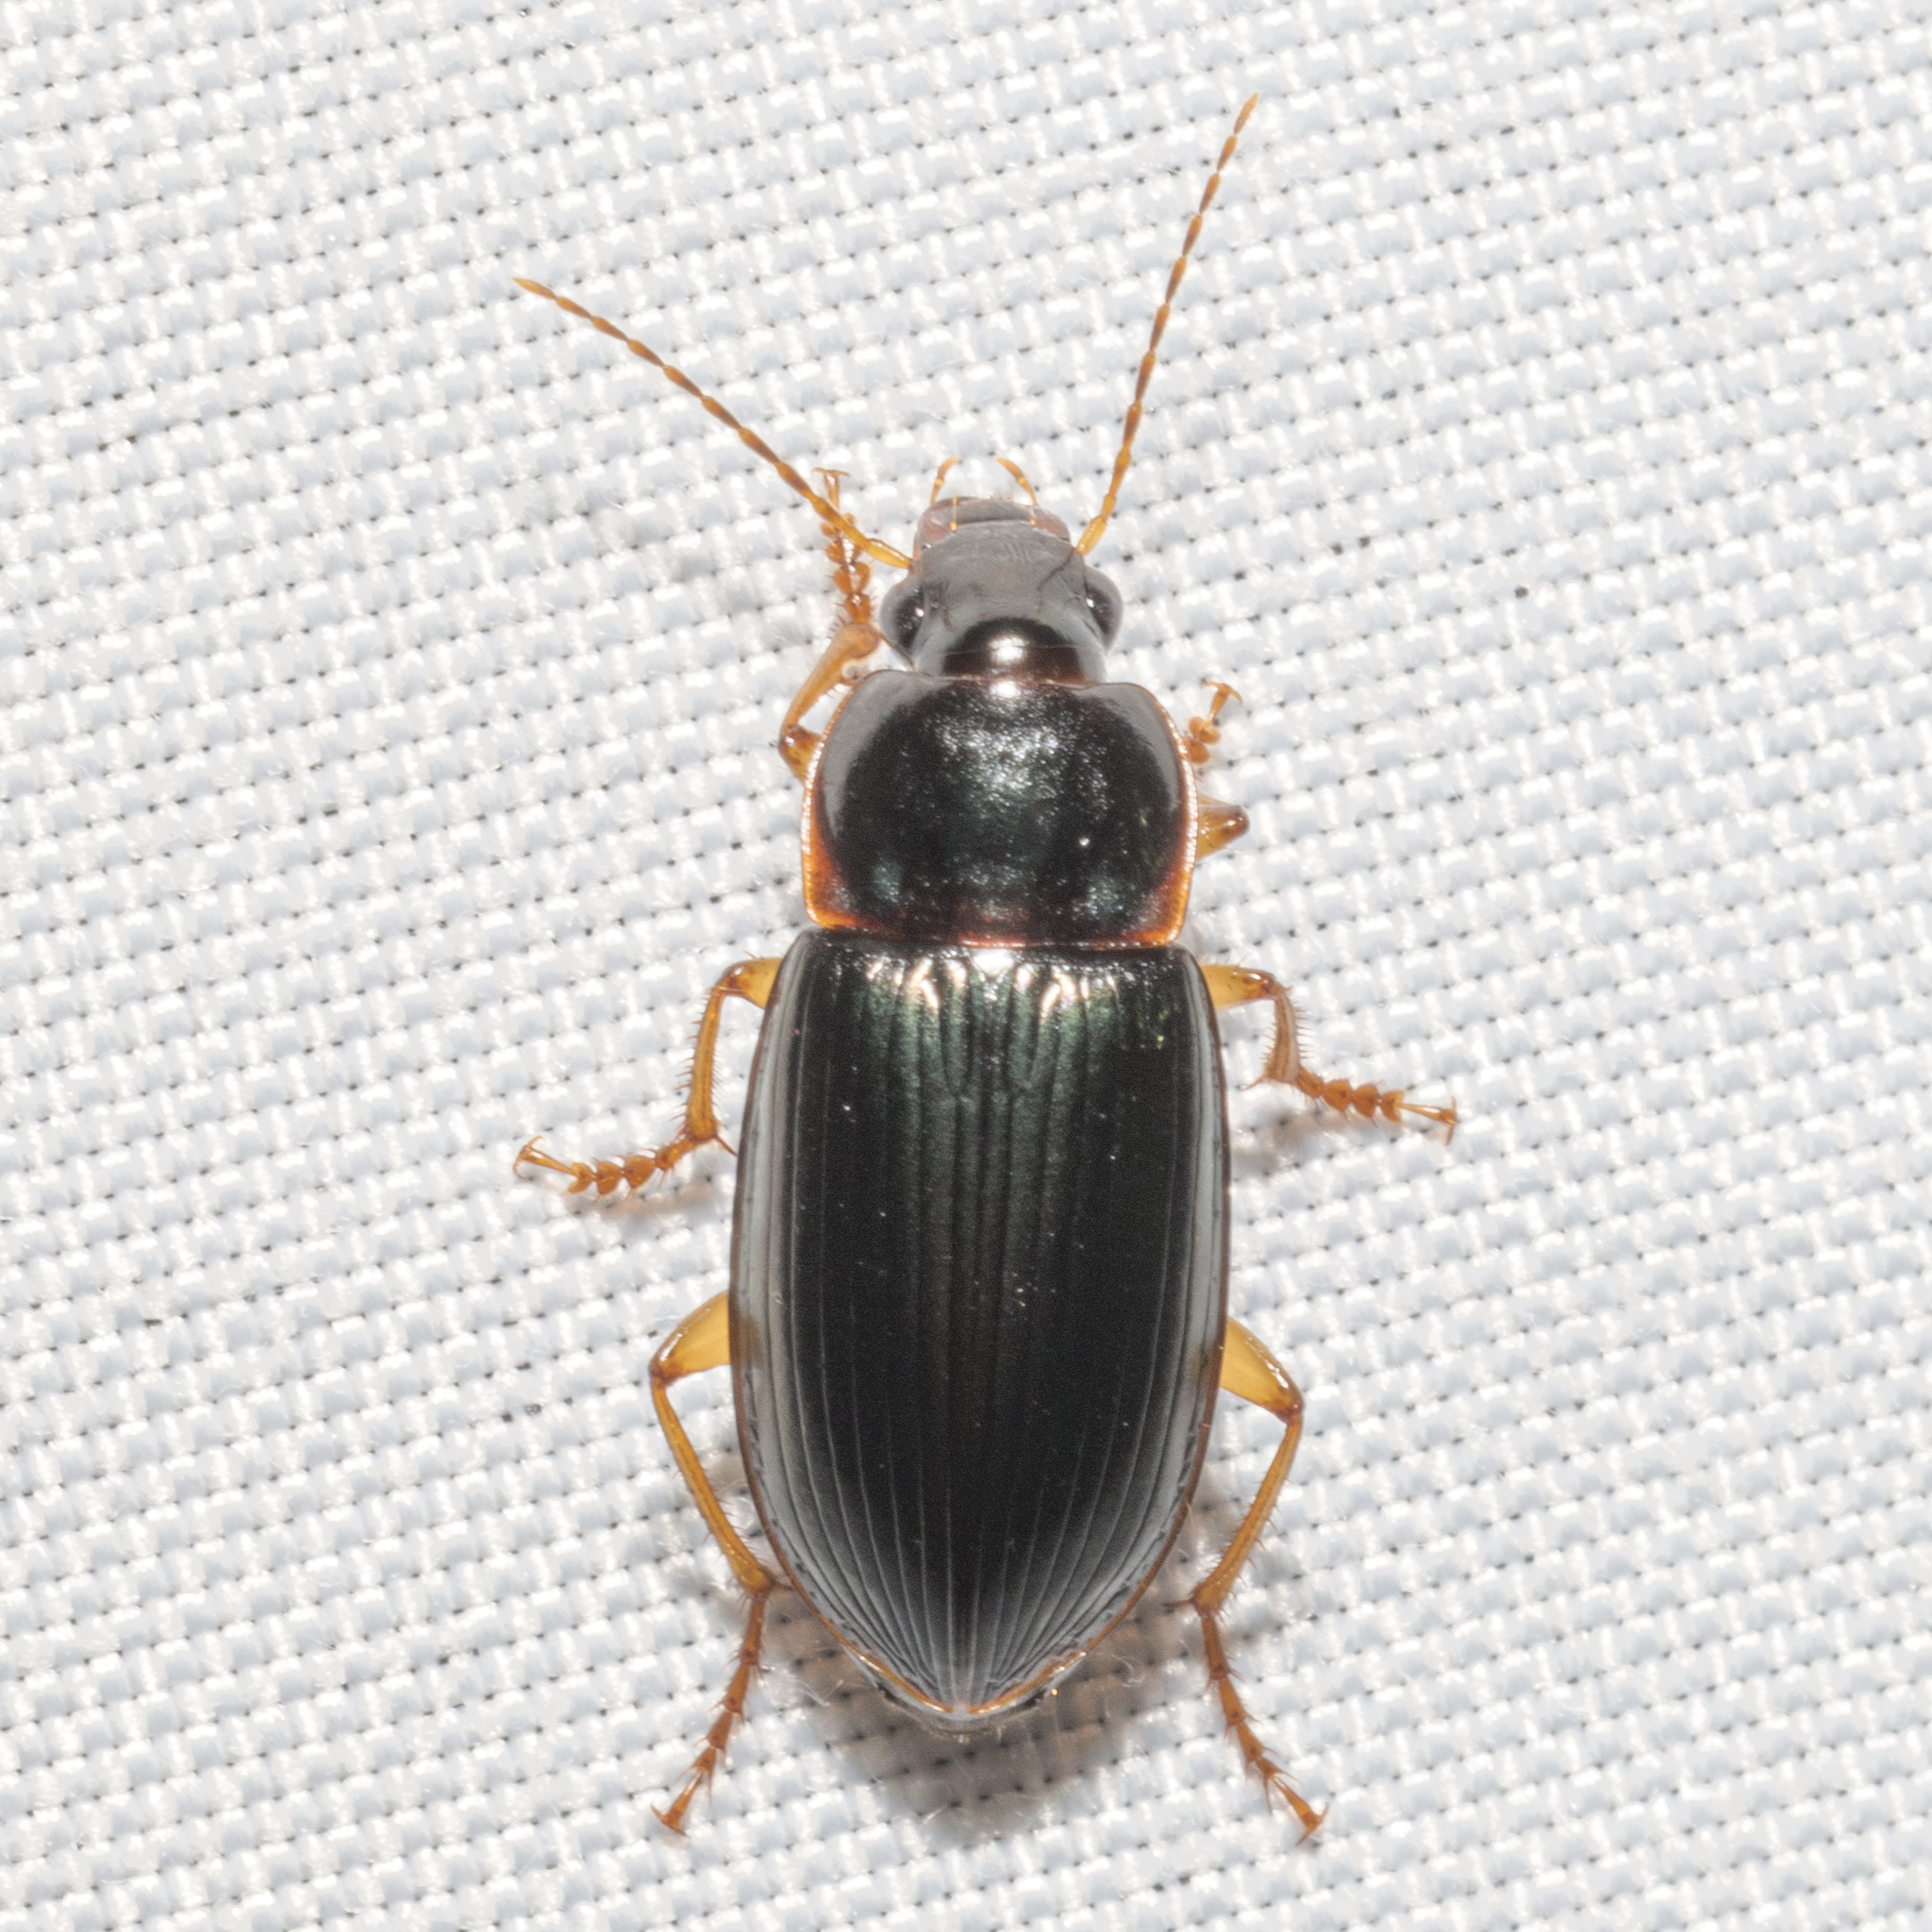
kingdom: Animalia
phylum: Arthropoda
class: Insecta
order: Coleoptera
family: Carabidae
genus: Notiobia
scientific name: Notiobia terminata
